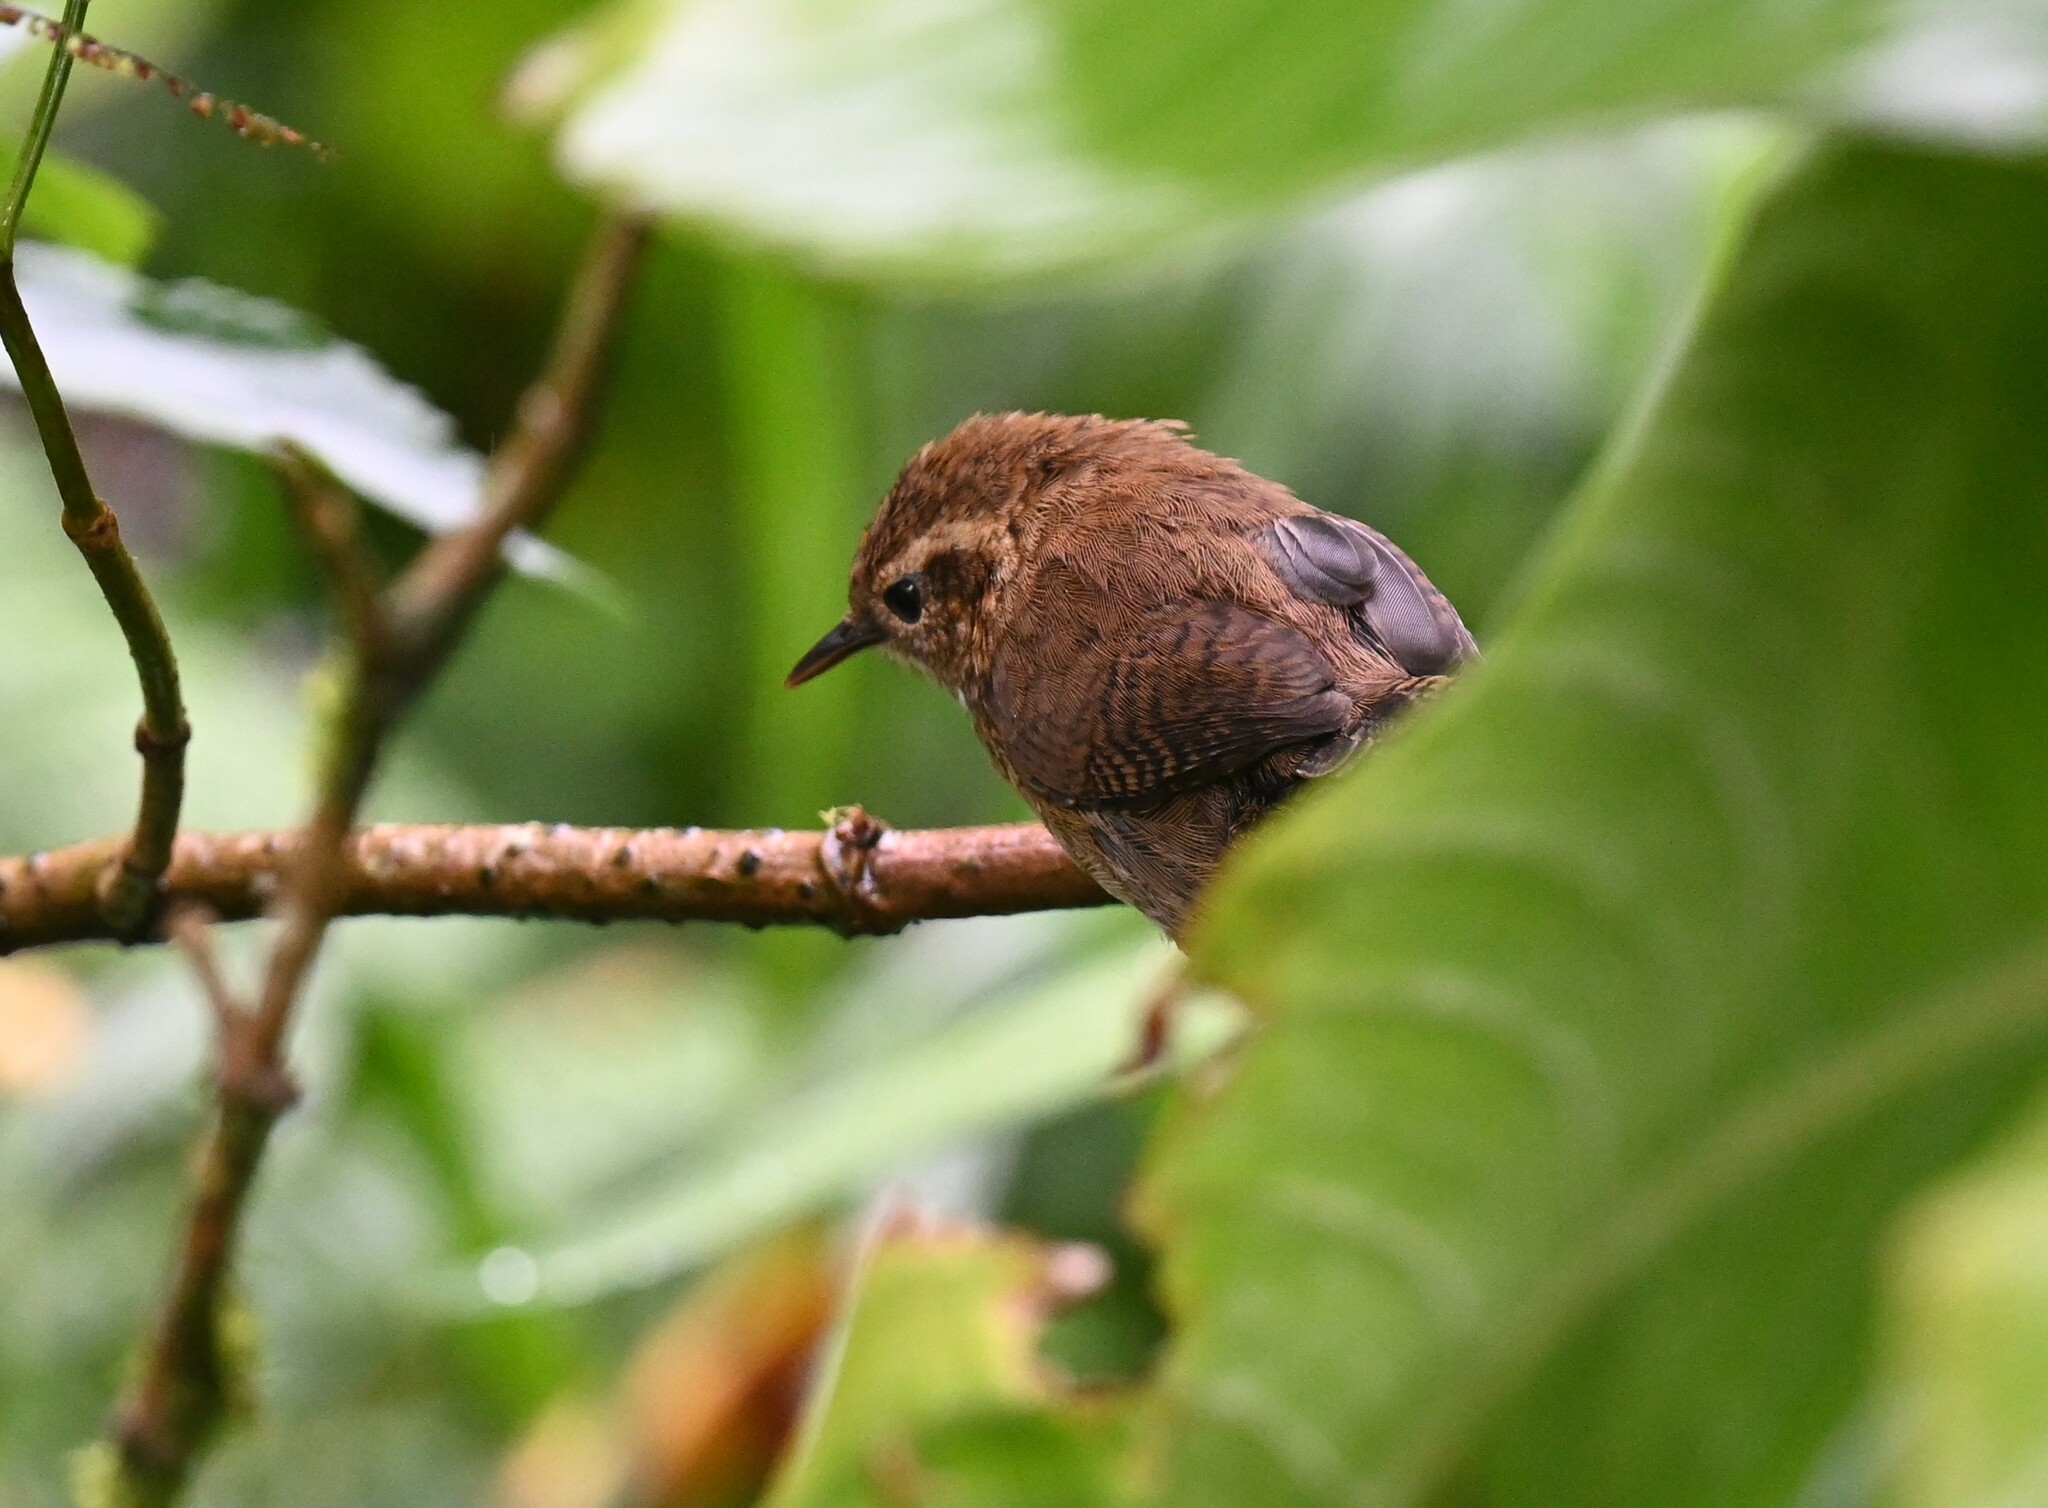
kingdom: Animalia
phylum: Chordata
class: Aves
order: Passeriformes
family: Troglodytidae
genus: Troglodytes
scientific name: Troglodytes solstitialis
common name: Mountain wren
